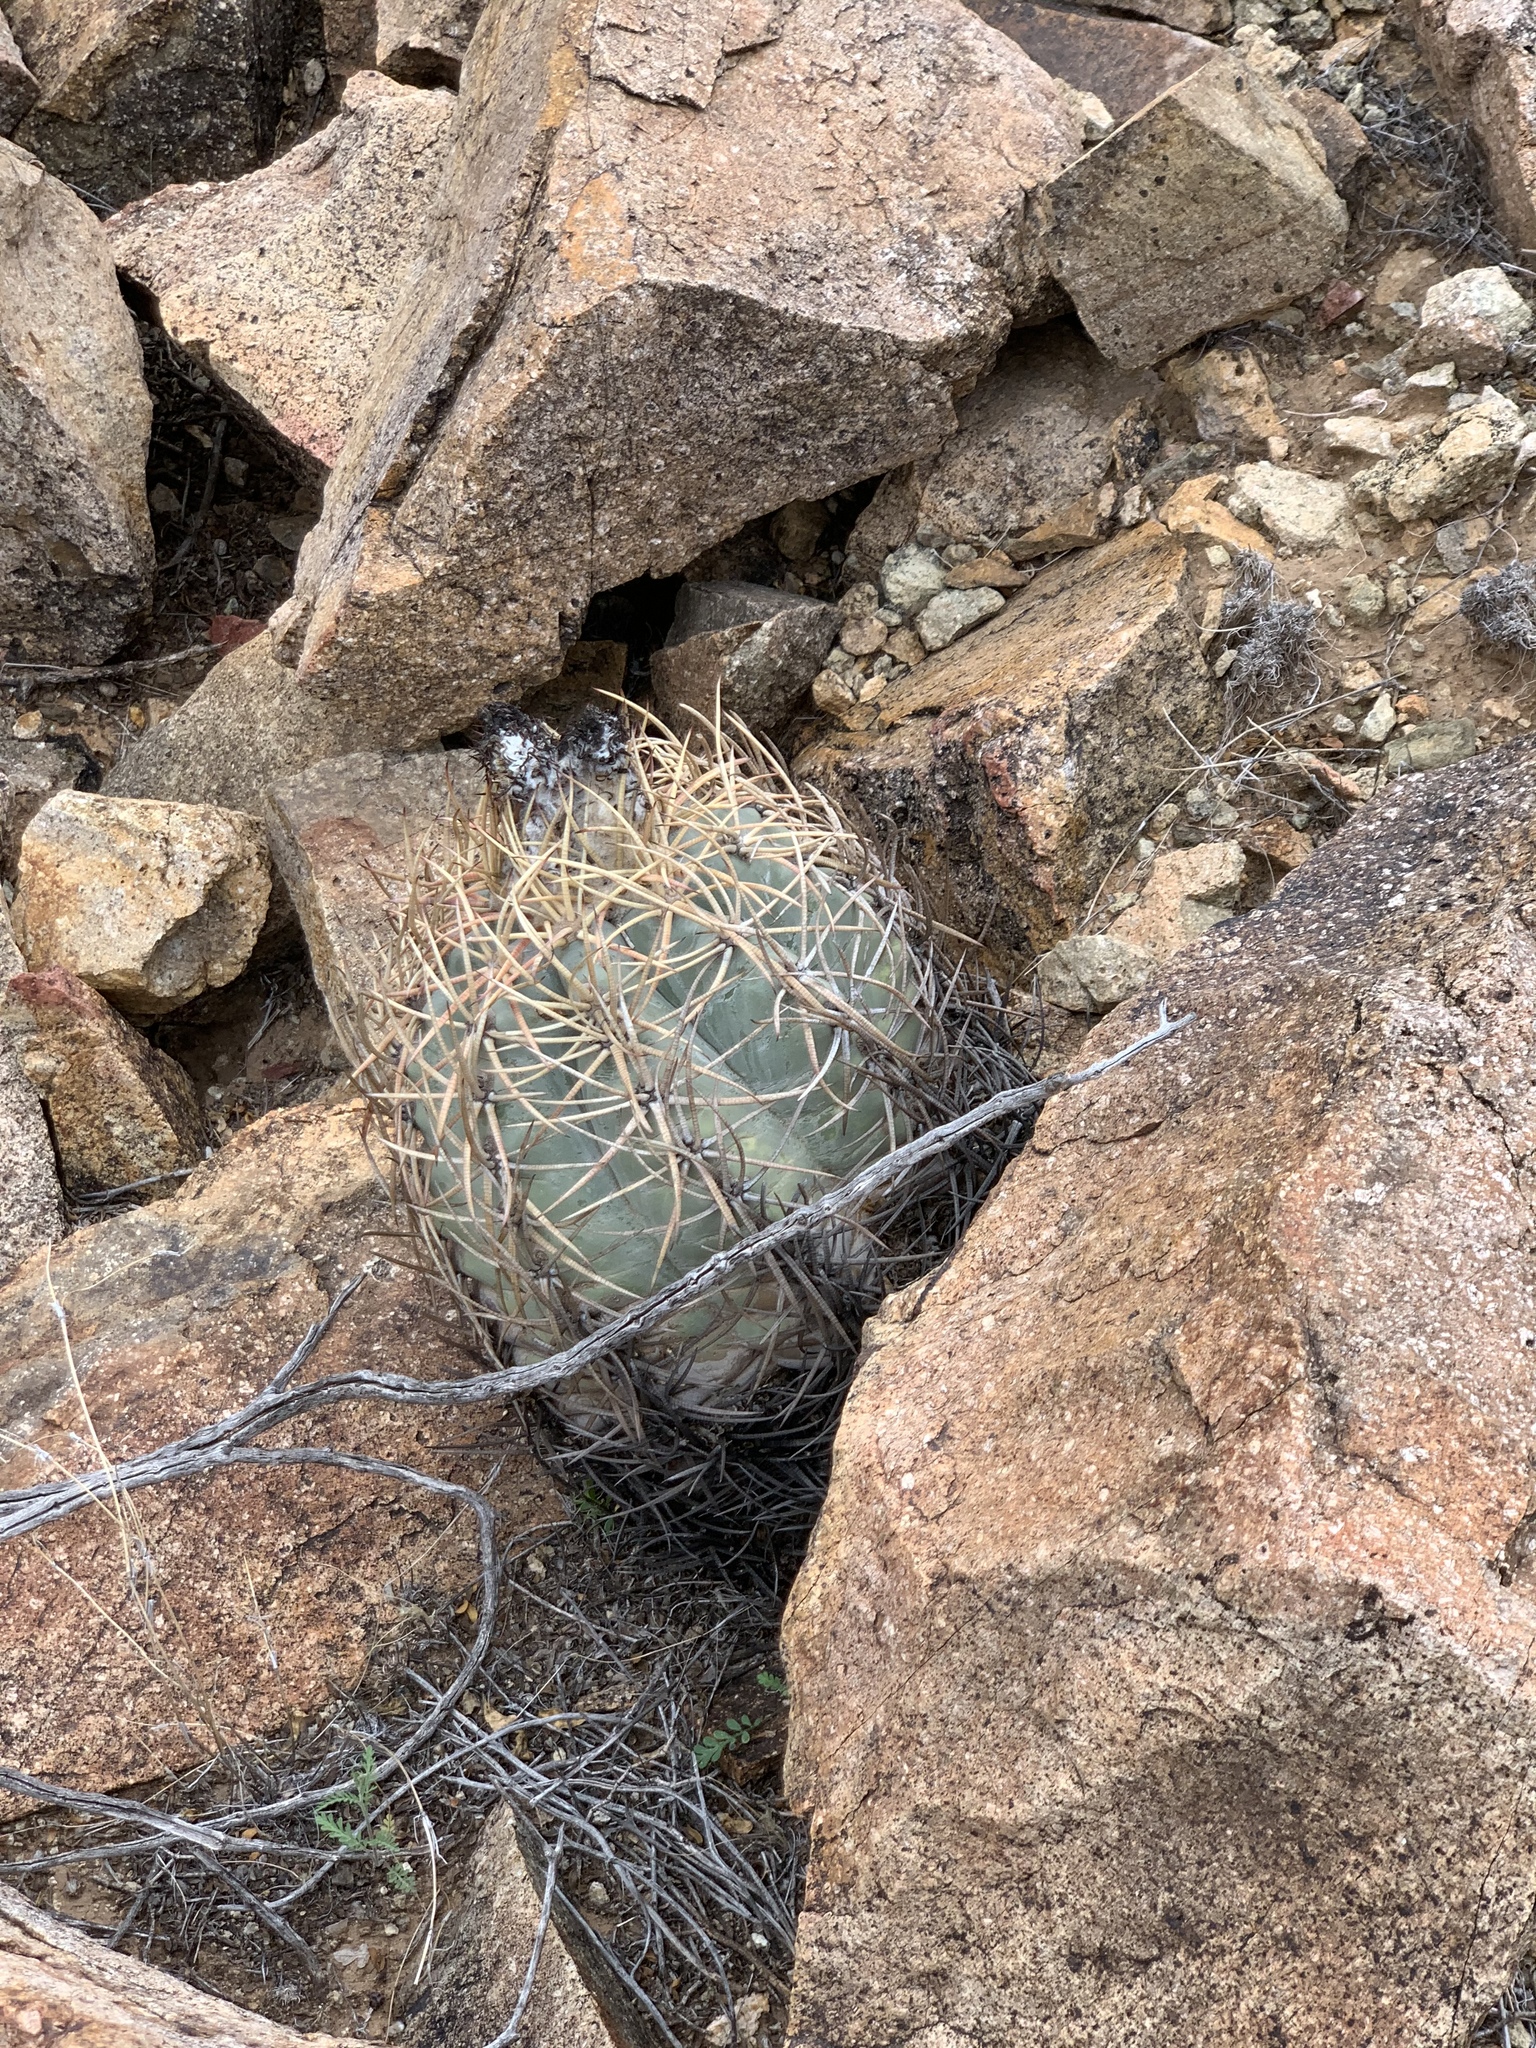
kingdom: Plantae
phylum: Tracheophyta
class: Magnoliopsida
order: Caryophyllales
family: Cactaceae
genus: Echinocactus
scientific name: Echinocactus horizonthalonius
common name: Devilshead
